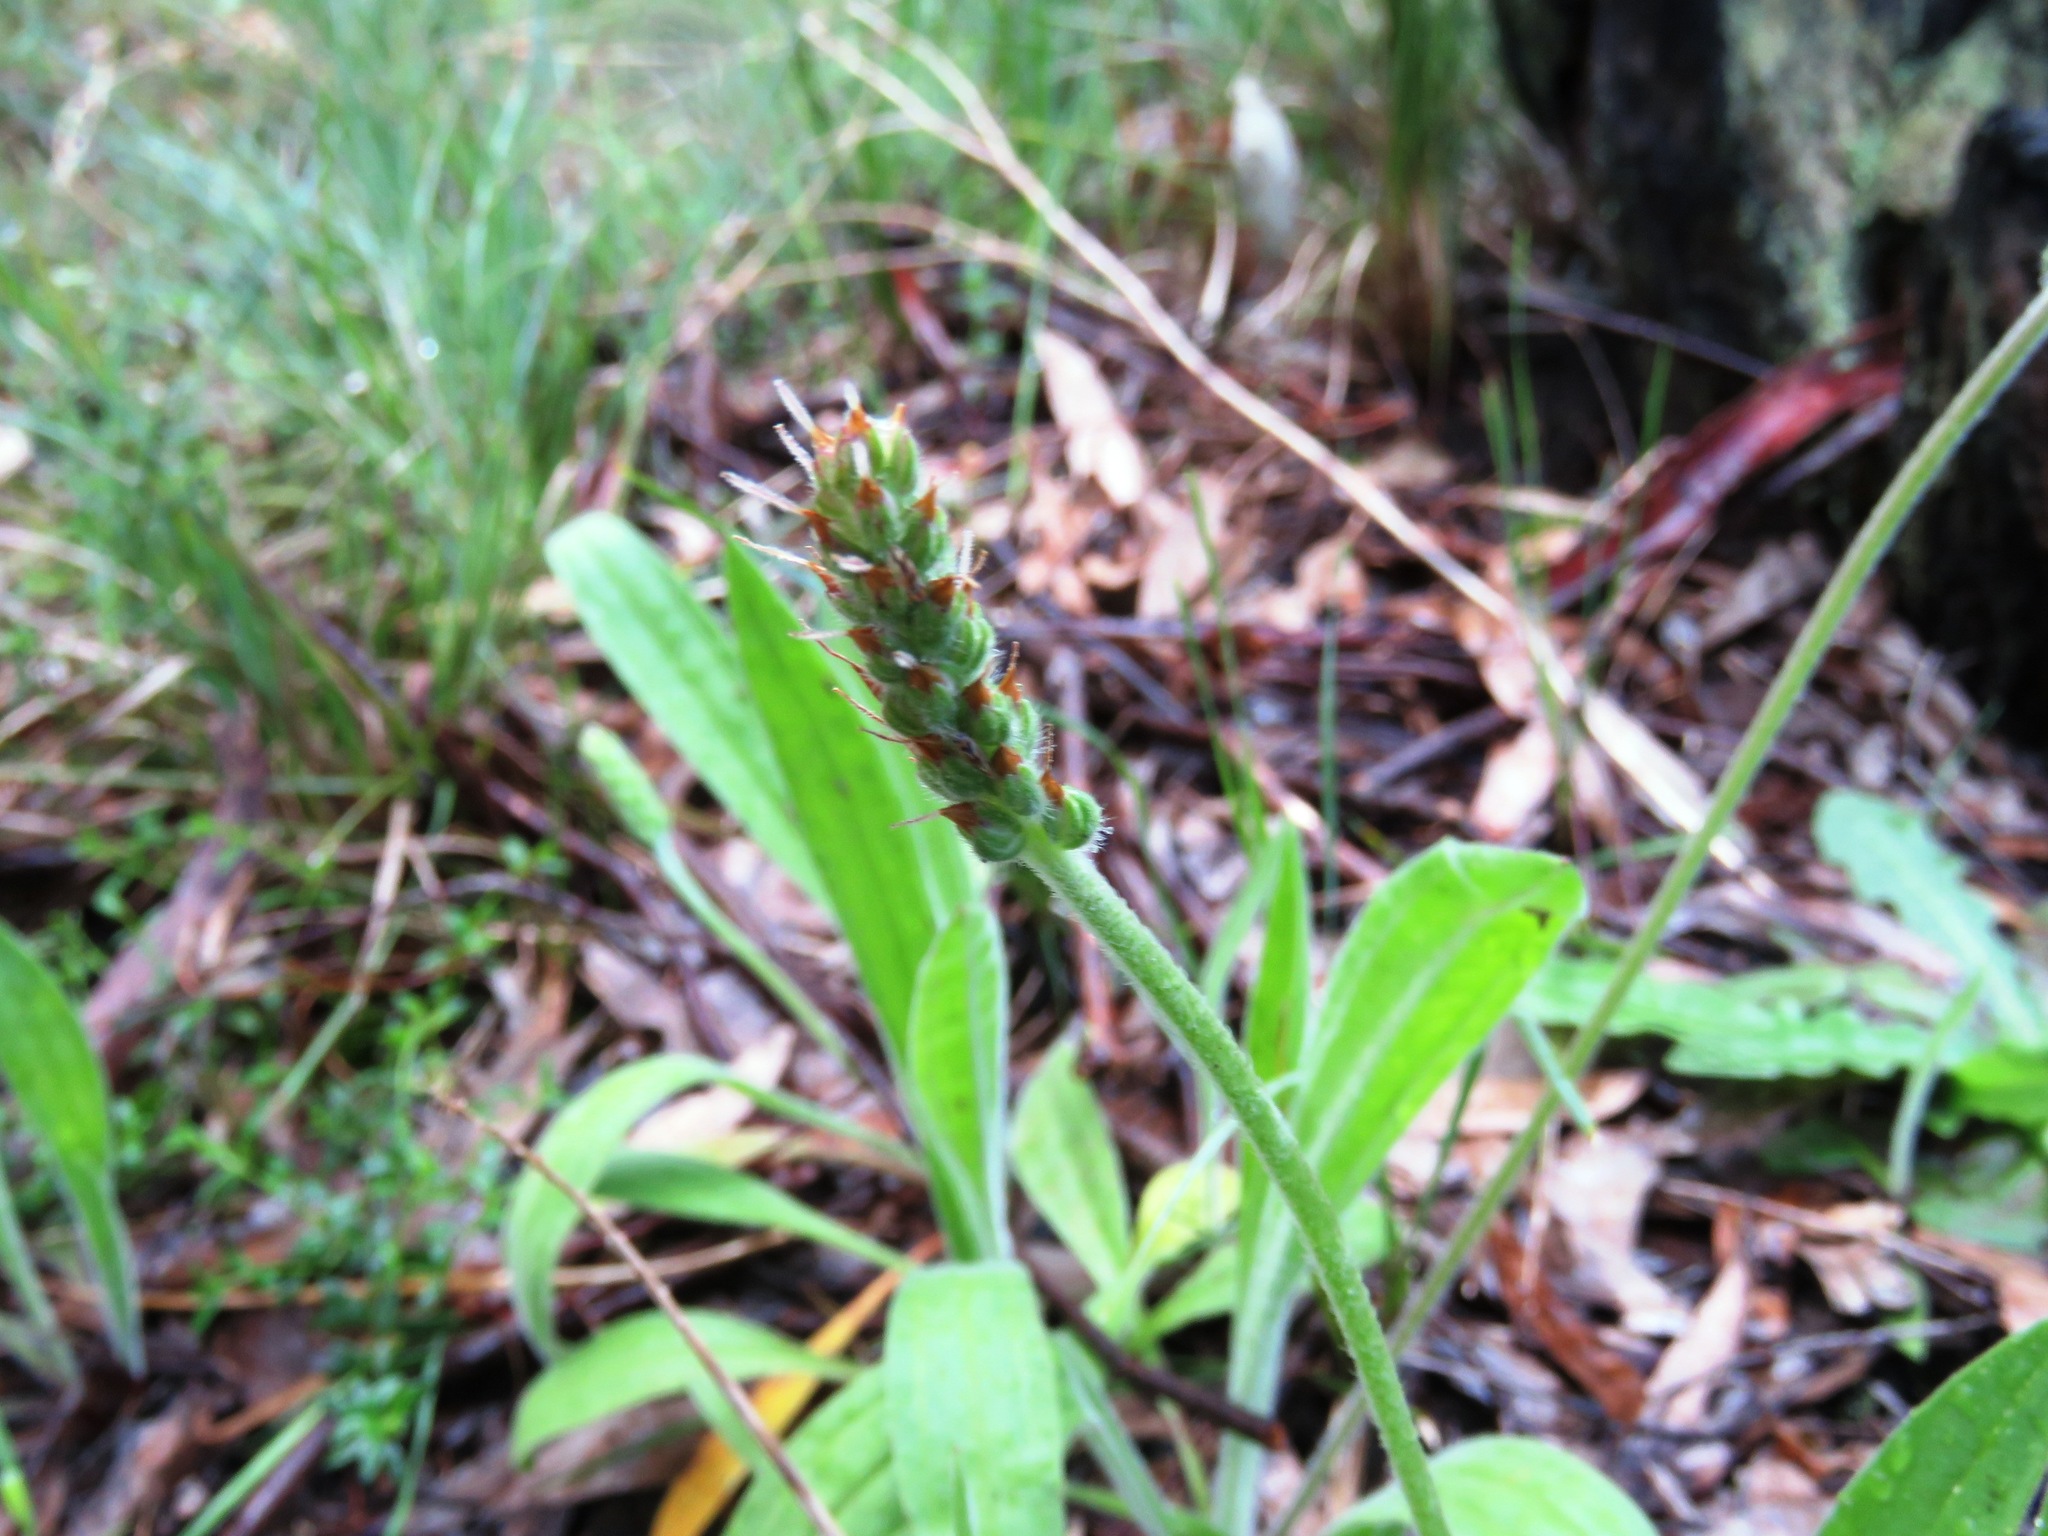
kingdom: Plantae
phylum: Tracheophyta
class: Magnoliopsida
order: Lamiales
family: Plantaginaceae
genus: Plantago
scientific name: Plantago varia
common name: Variable plantain
